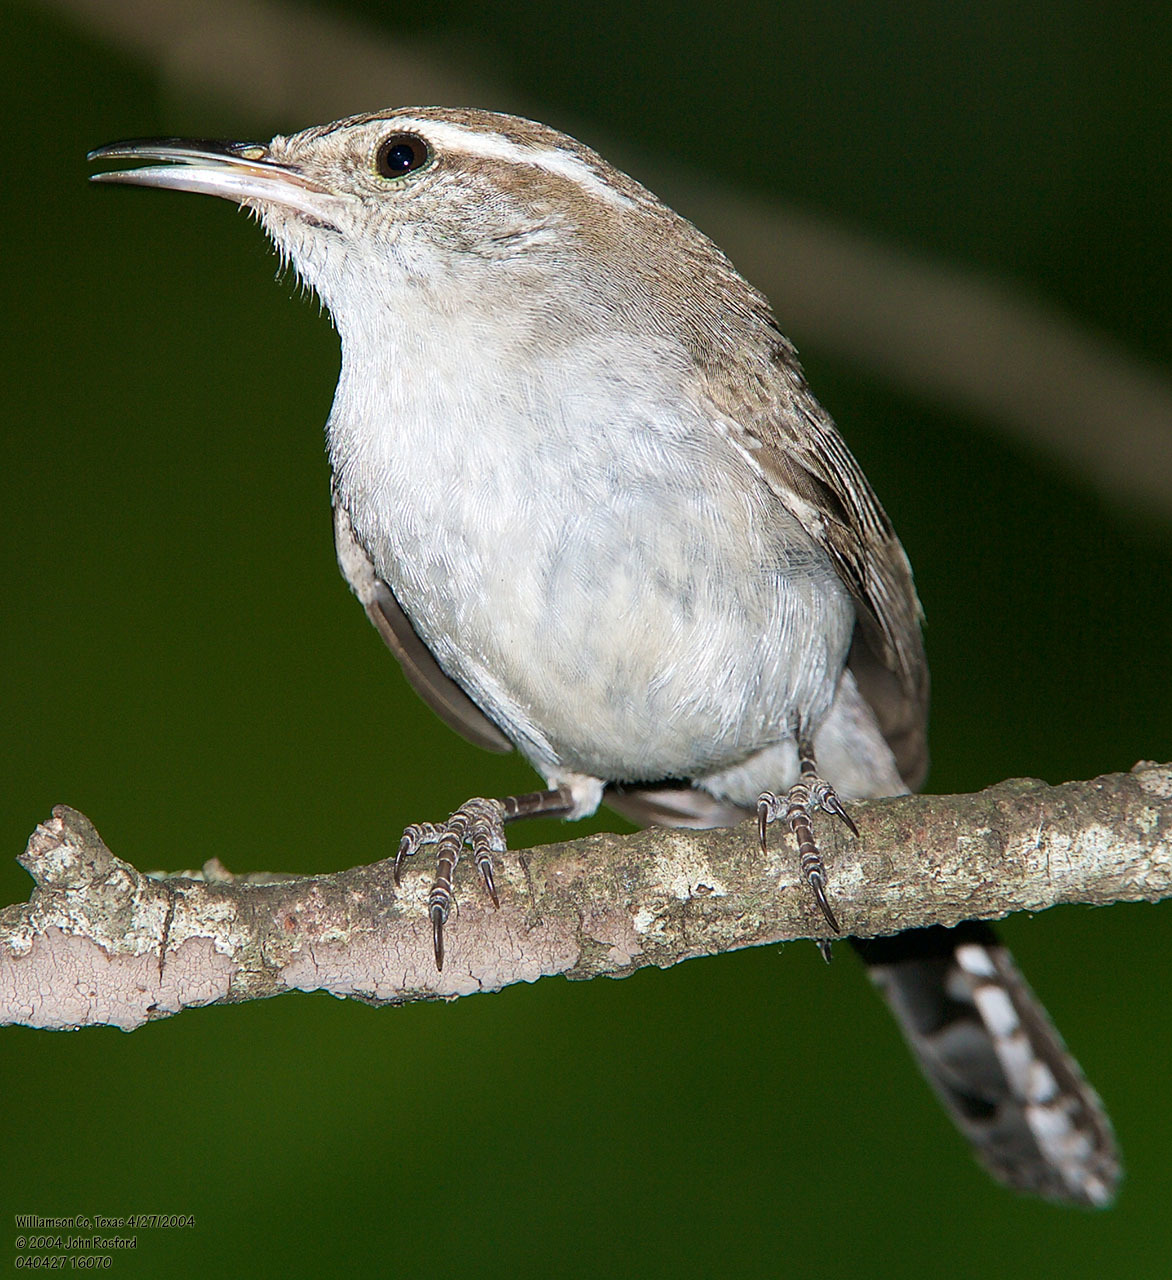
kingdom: Animalia
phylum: Chordata
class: Aves
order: Passeriformes
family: Troglodytidae
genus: Thryomanes
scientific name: Thryomanes bewickii
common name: Bewick's wren
